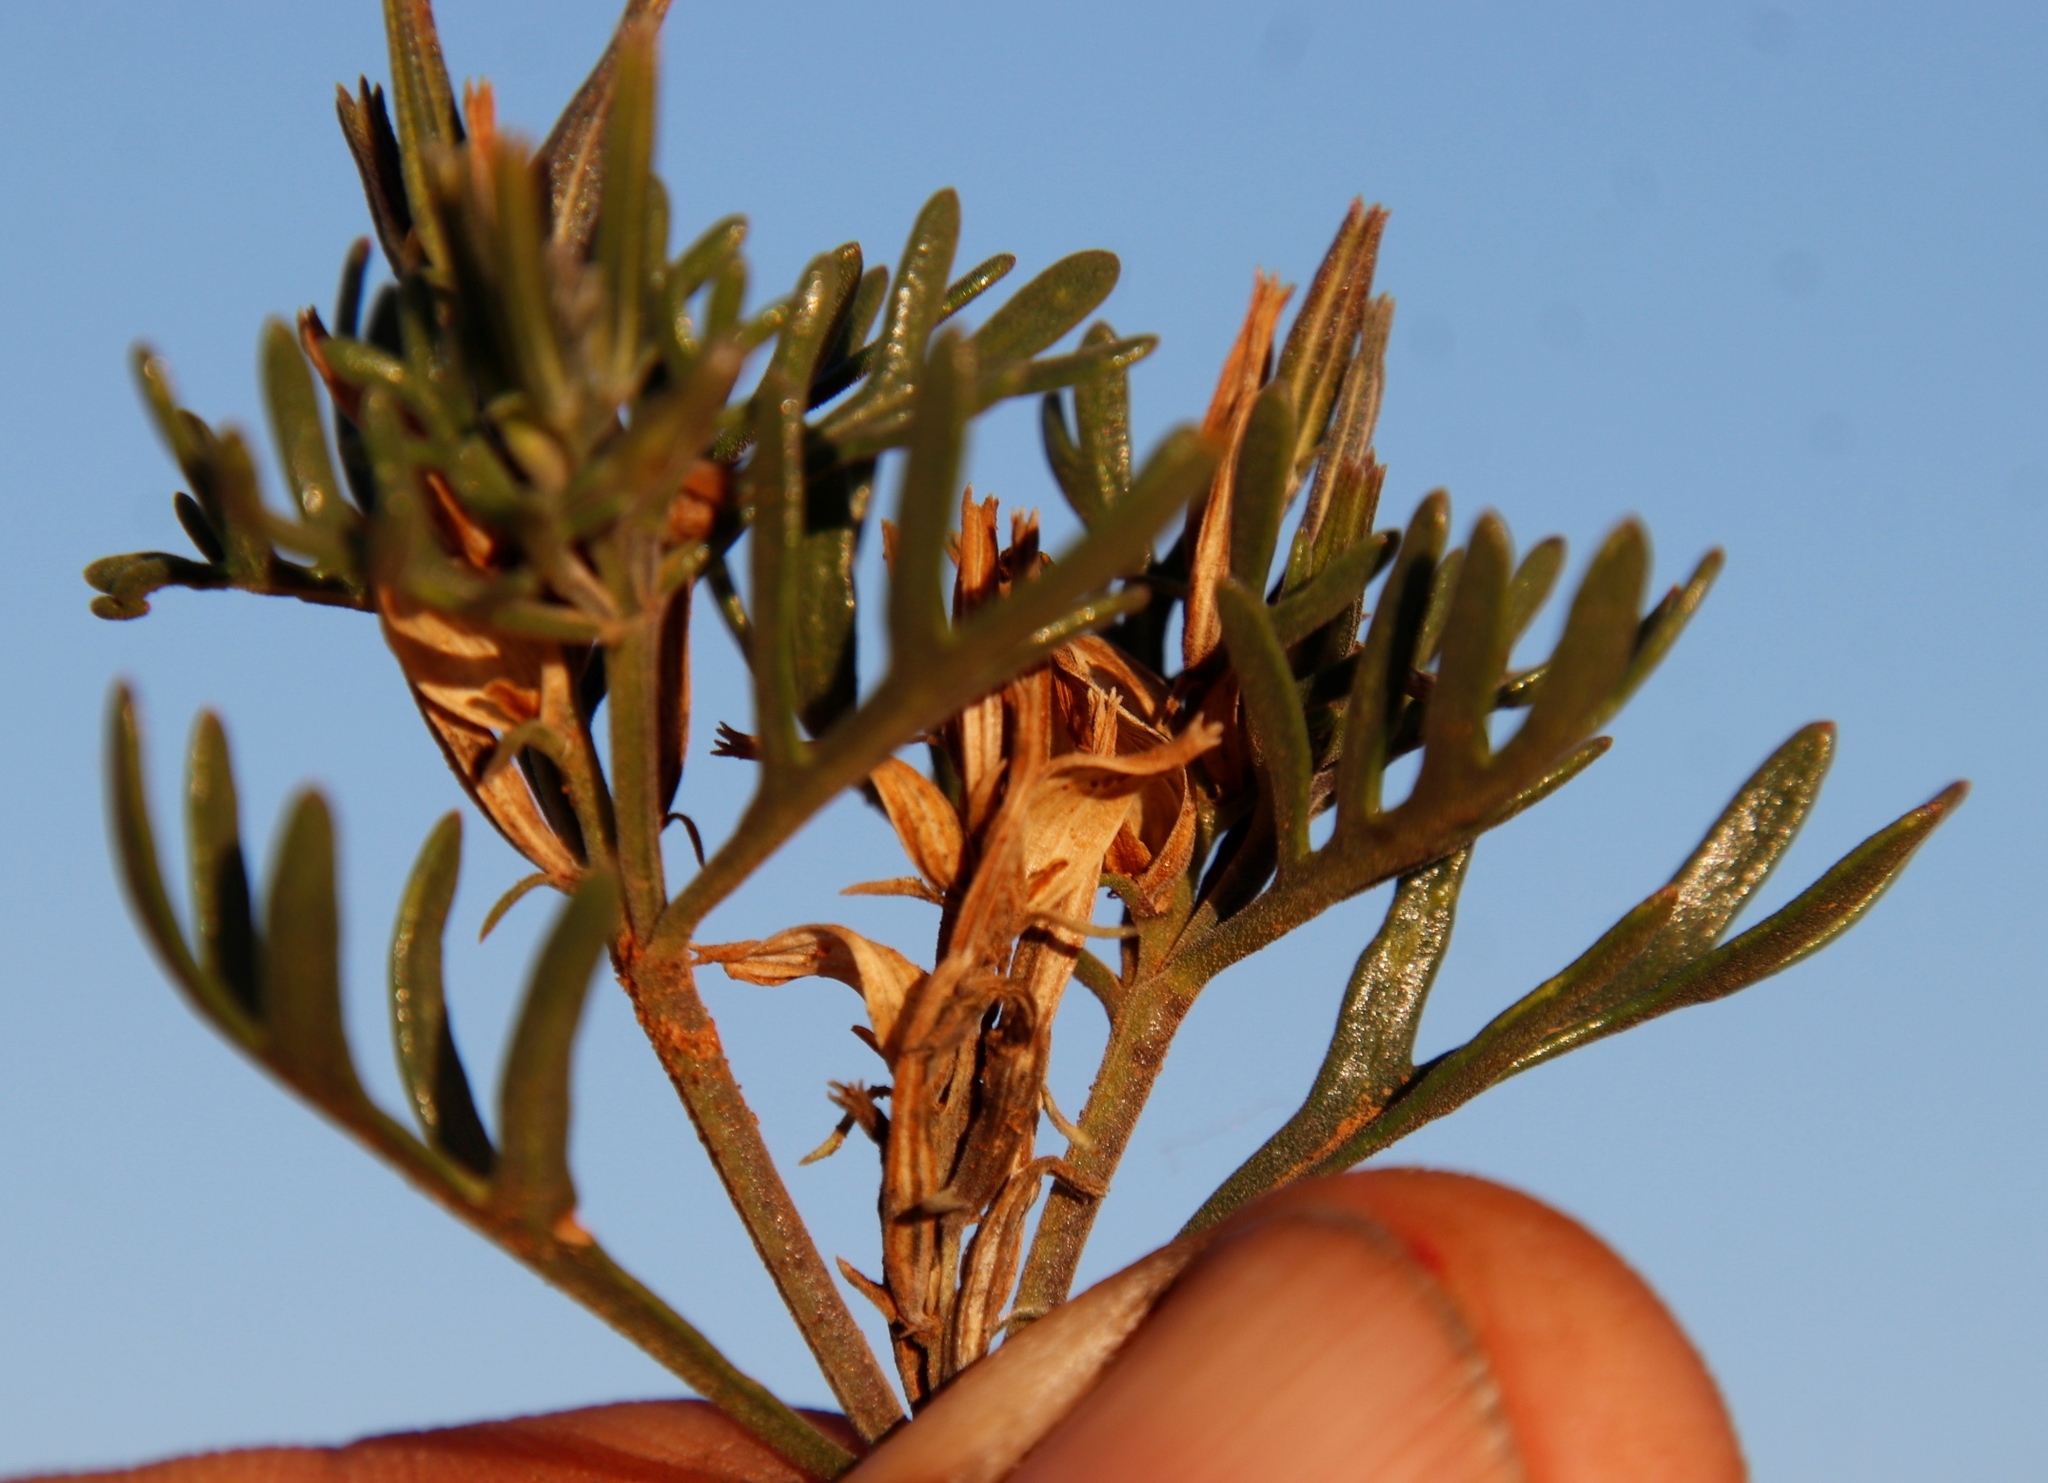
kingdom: Plantae
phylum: Tracheophyta
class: Magnoliopsida
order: Lamiales
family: Verbenaceae
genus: Chascanum
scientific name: Chascanum pinnatifidum
